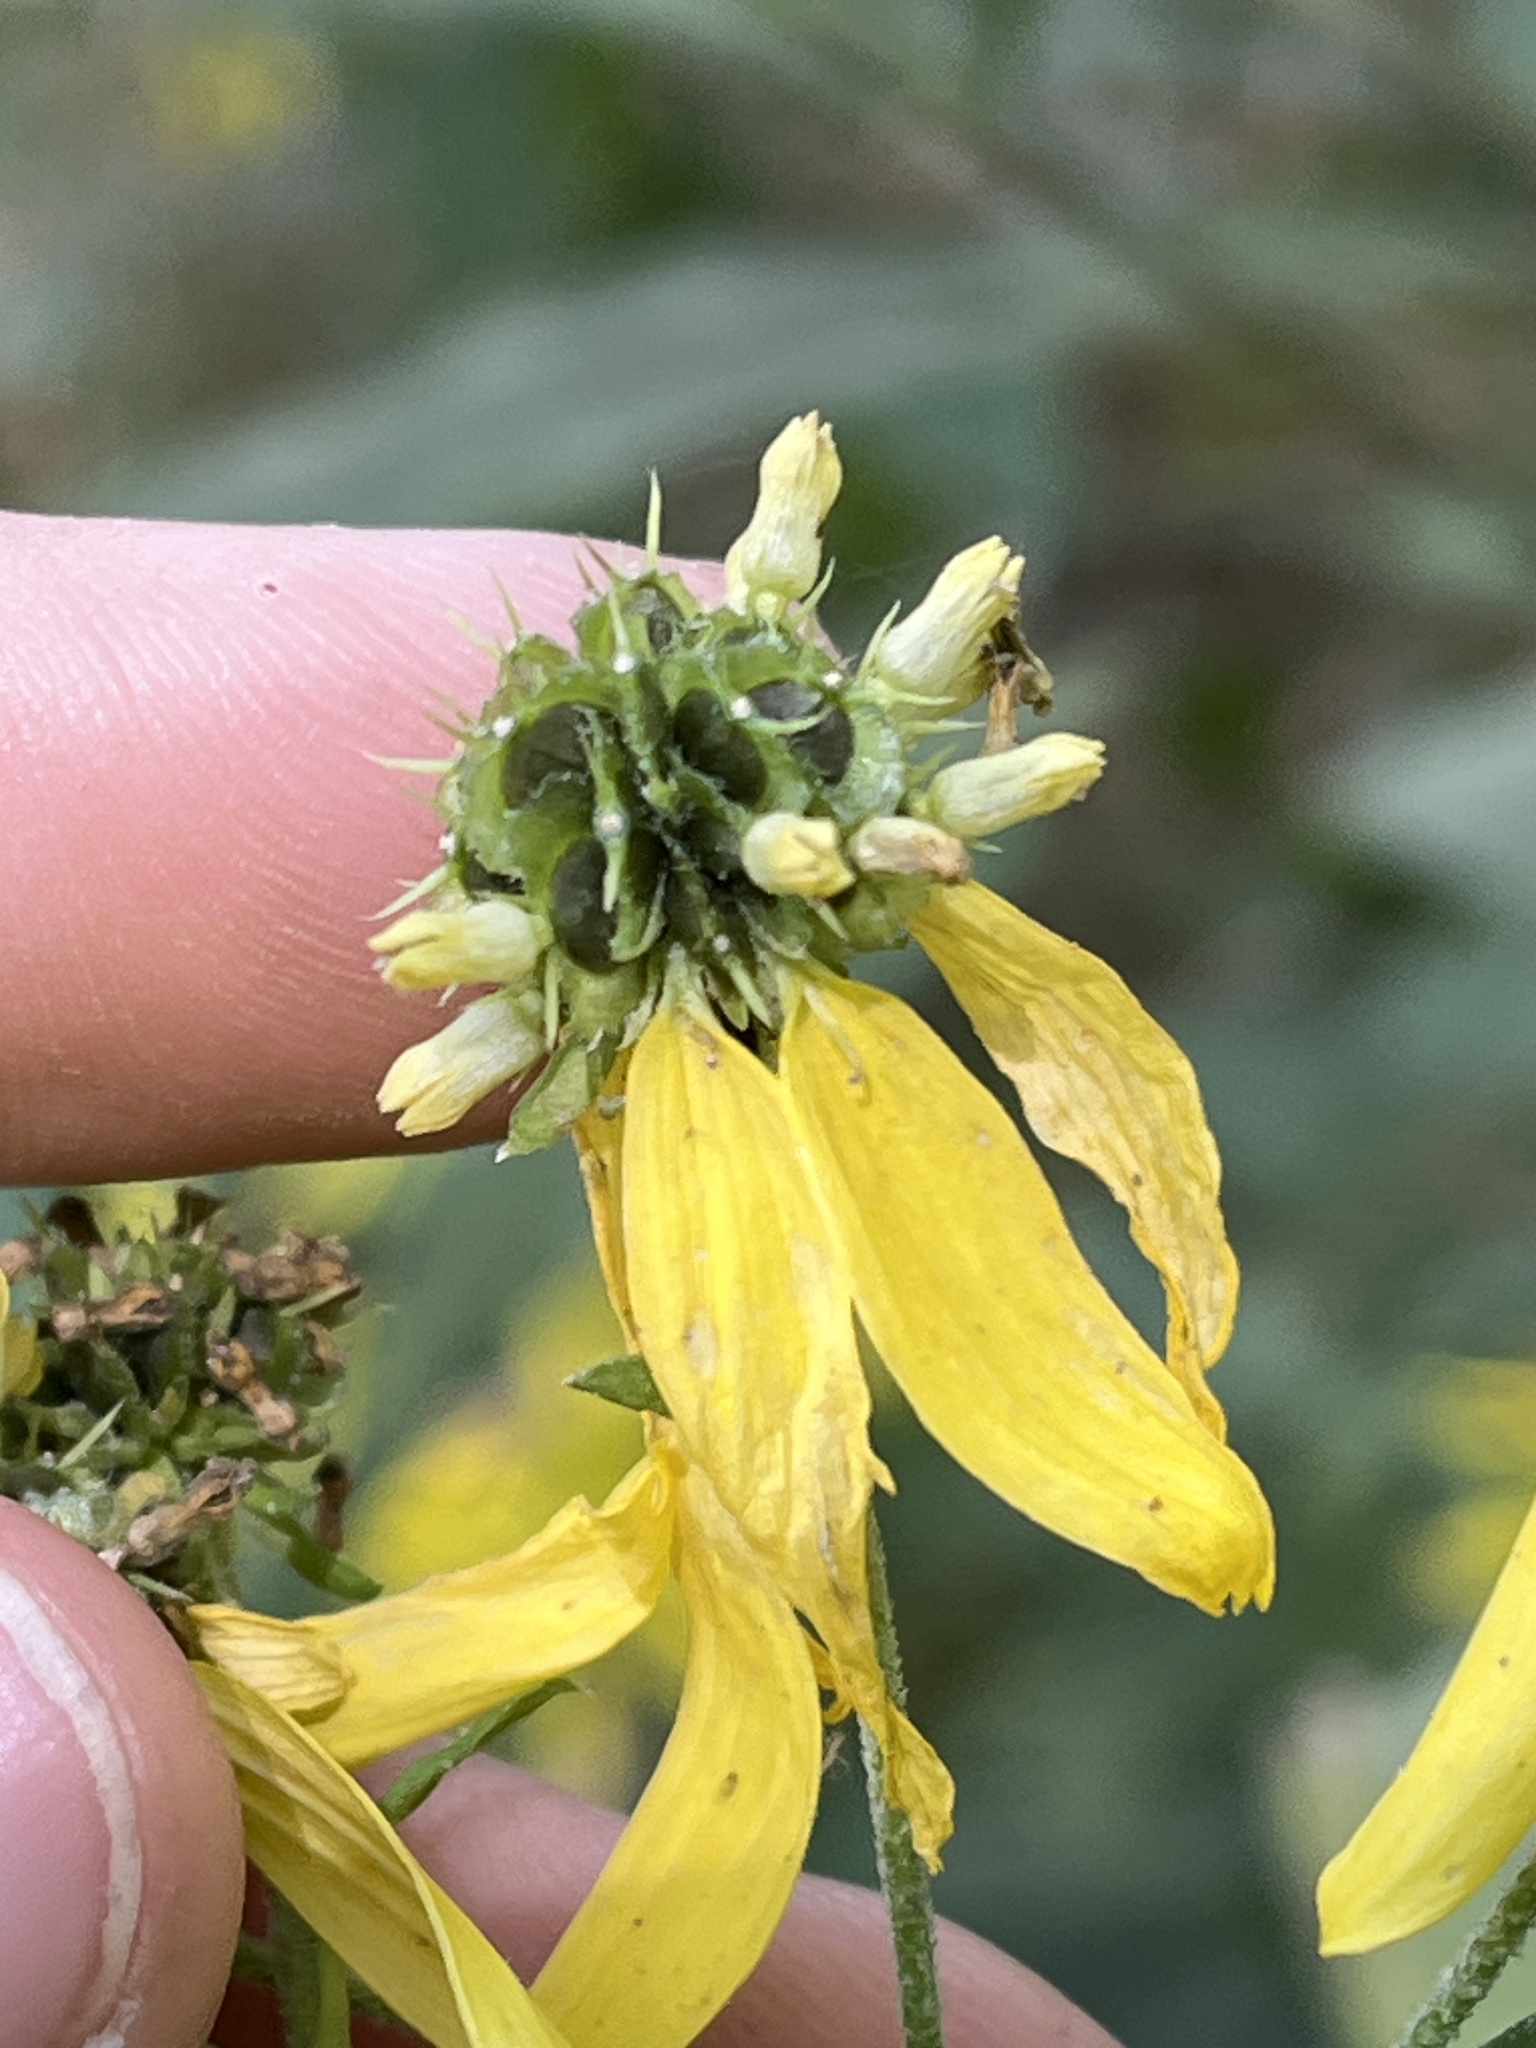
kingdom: Plantae
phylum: Tracheophyta
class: Magnoliopsida
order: Asterales
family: Asteraceae
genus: Verbesina
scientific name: Verbesina alternifolia
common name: Wingstem
